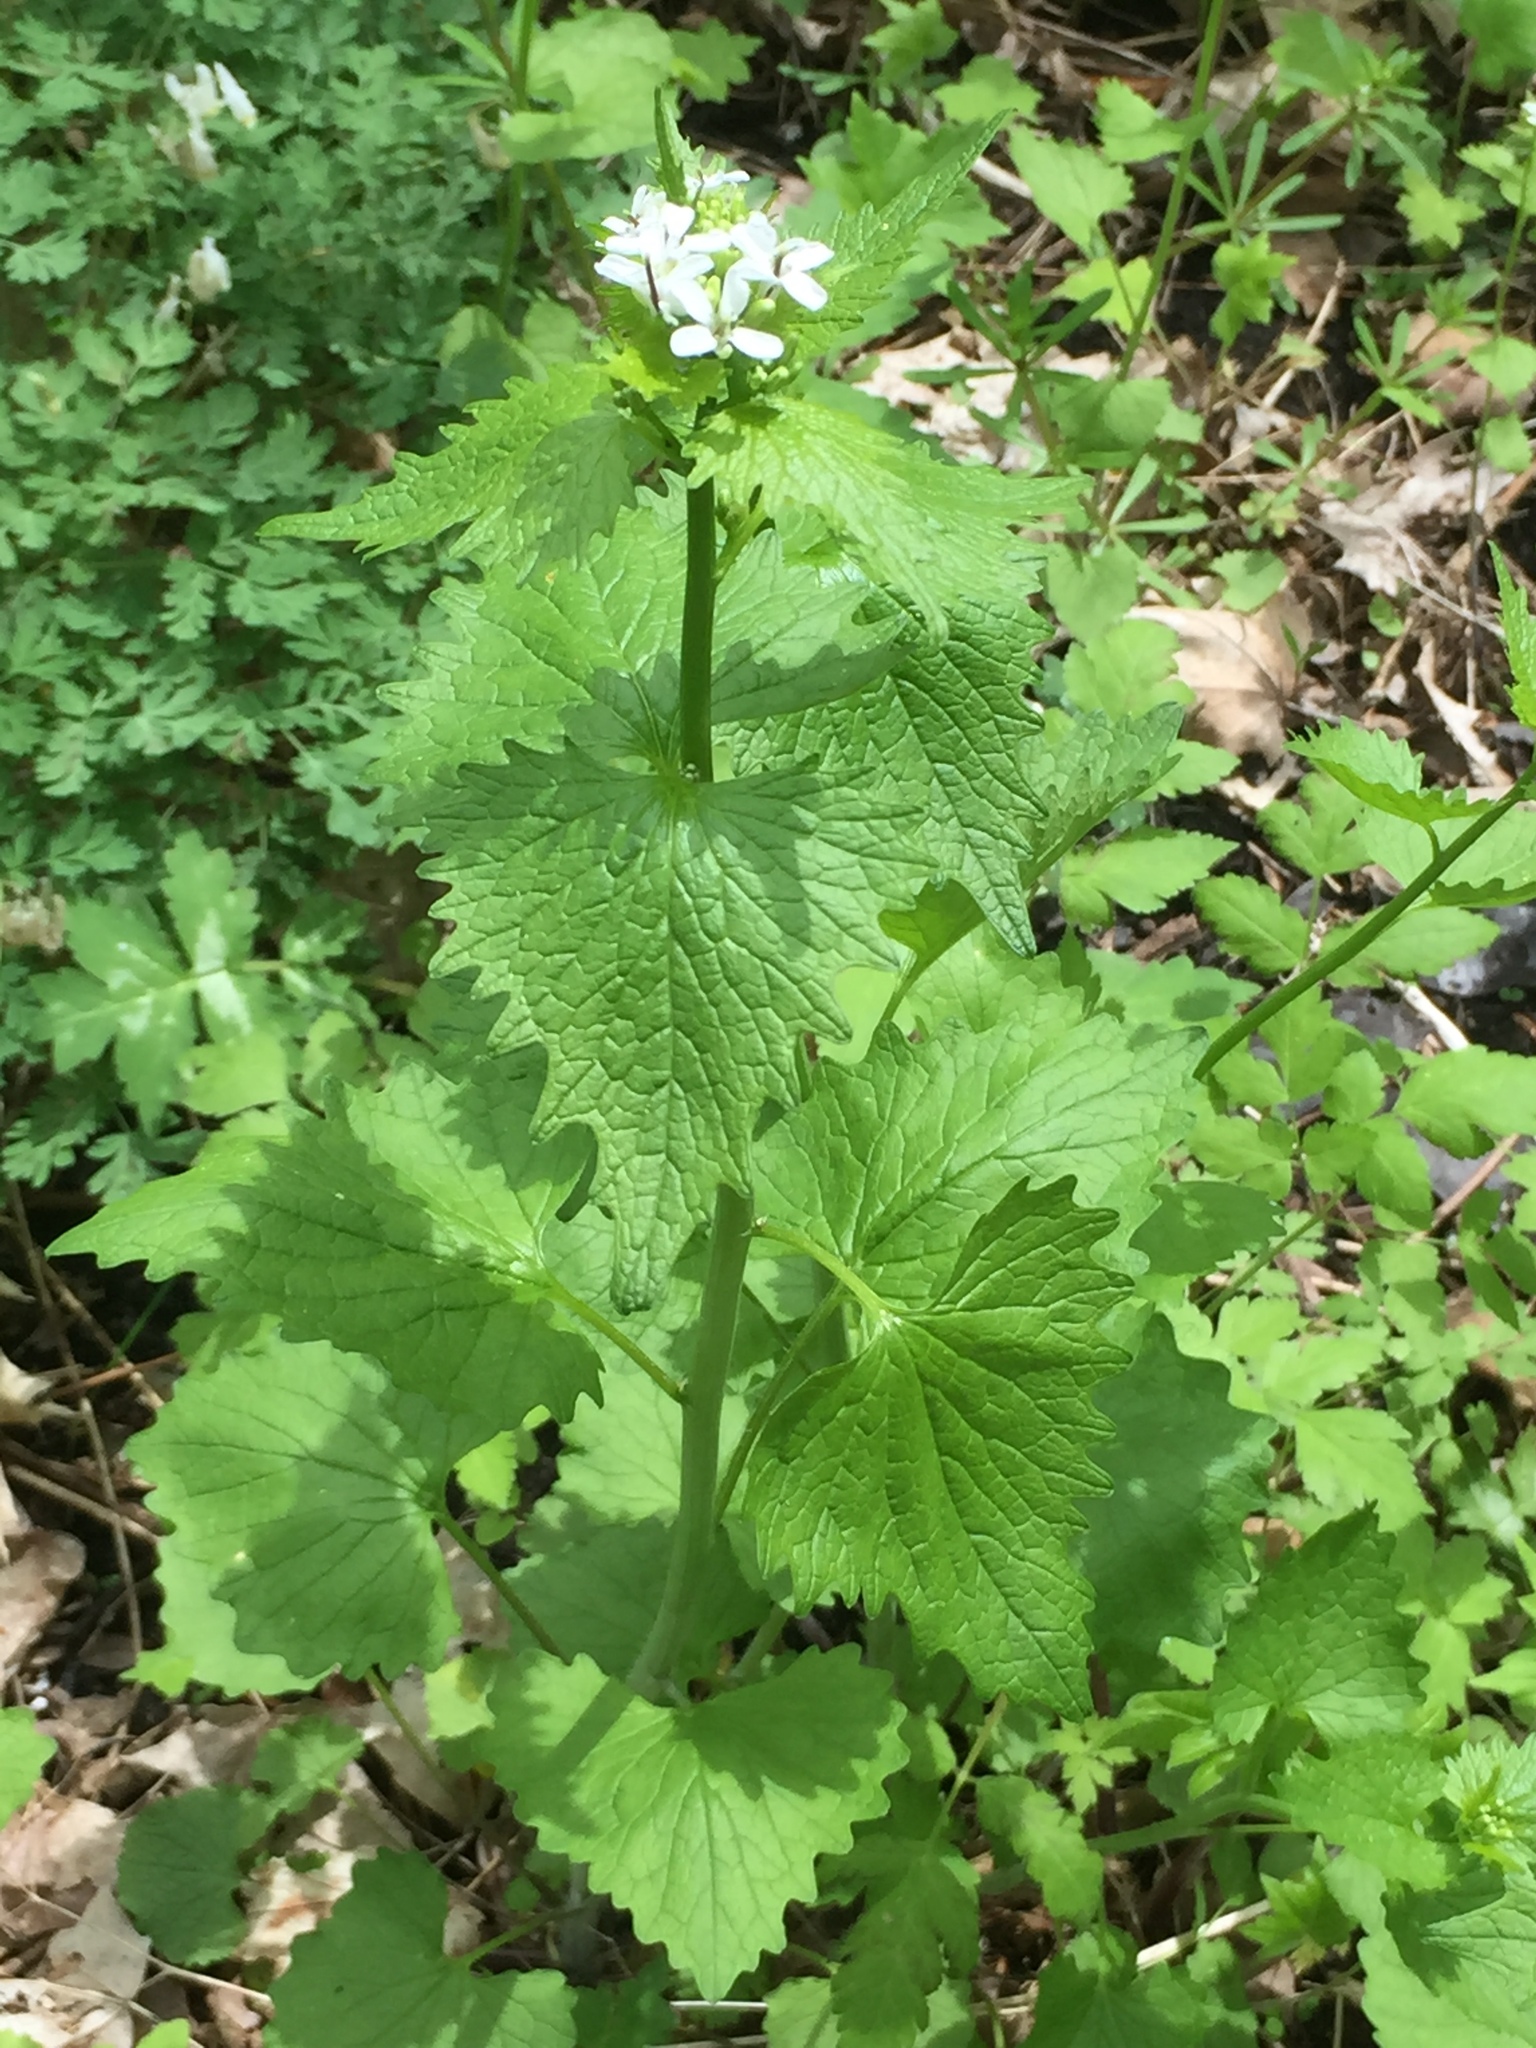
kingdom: Plantae
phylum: Tracheophyta
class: Magnoliopsida
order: Brassicales
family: Brassicaceae
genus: Alliaria
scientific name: Alliaria petiolata
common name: Garlic mustard
